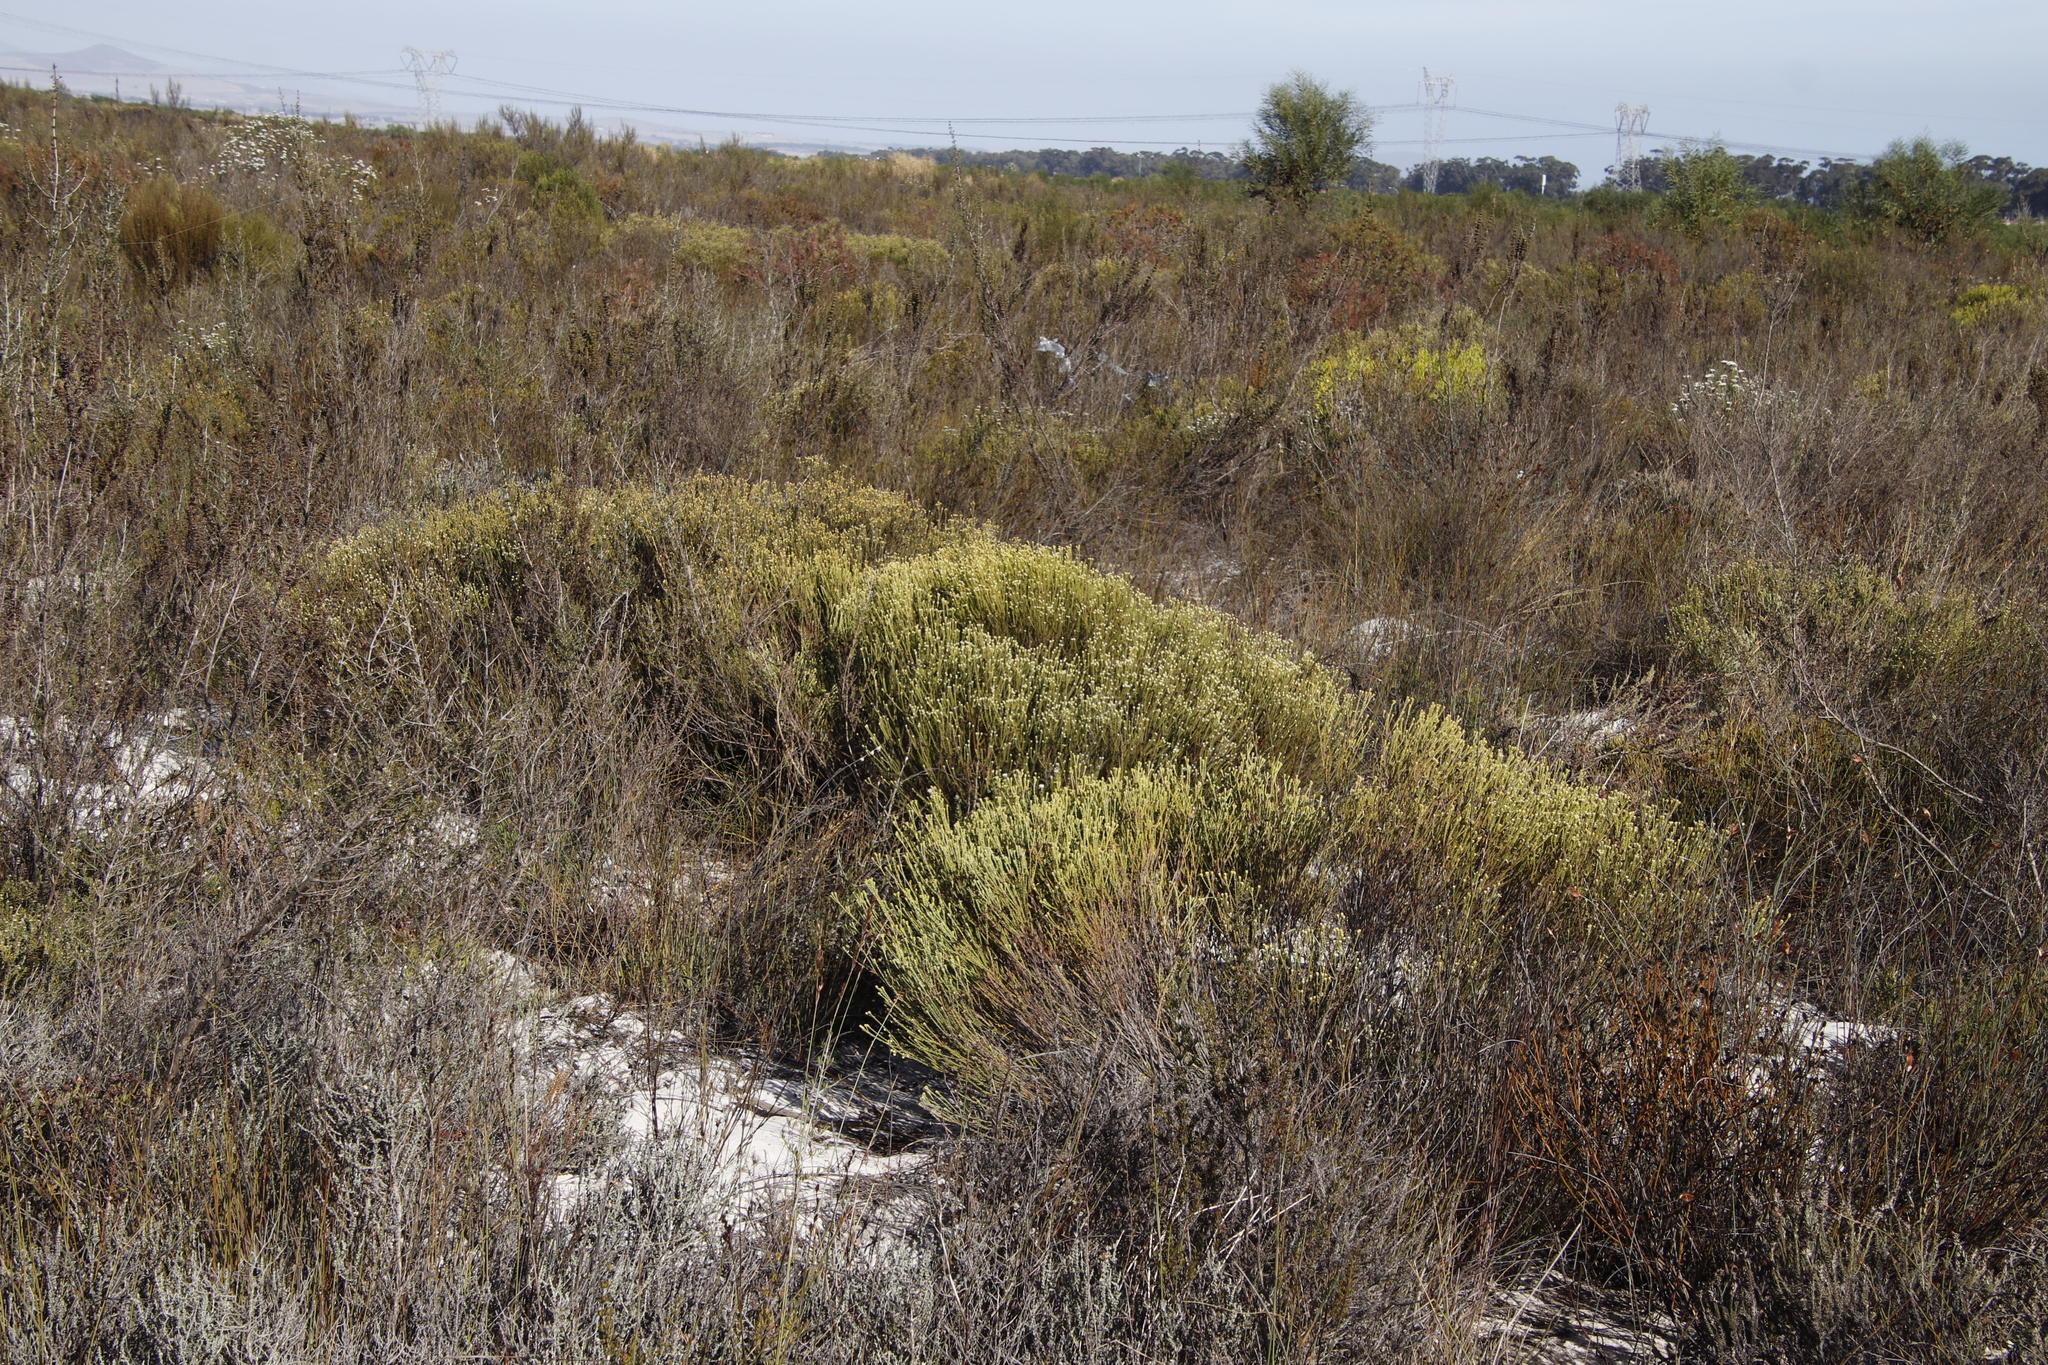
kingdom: Plantae
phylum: Tracheophyta
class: Magnoliopsida
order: Rosales
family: Rhamnaceae
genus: Phylica
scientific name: Phylica cephalantha
